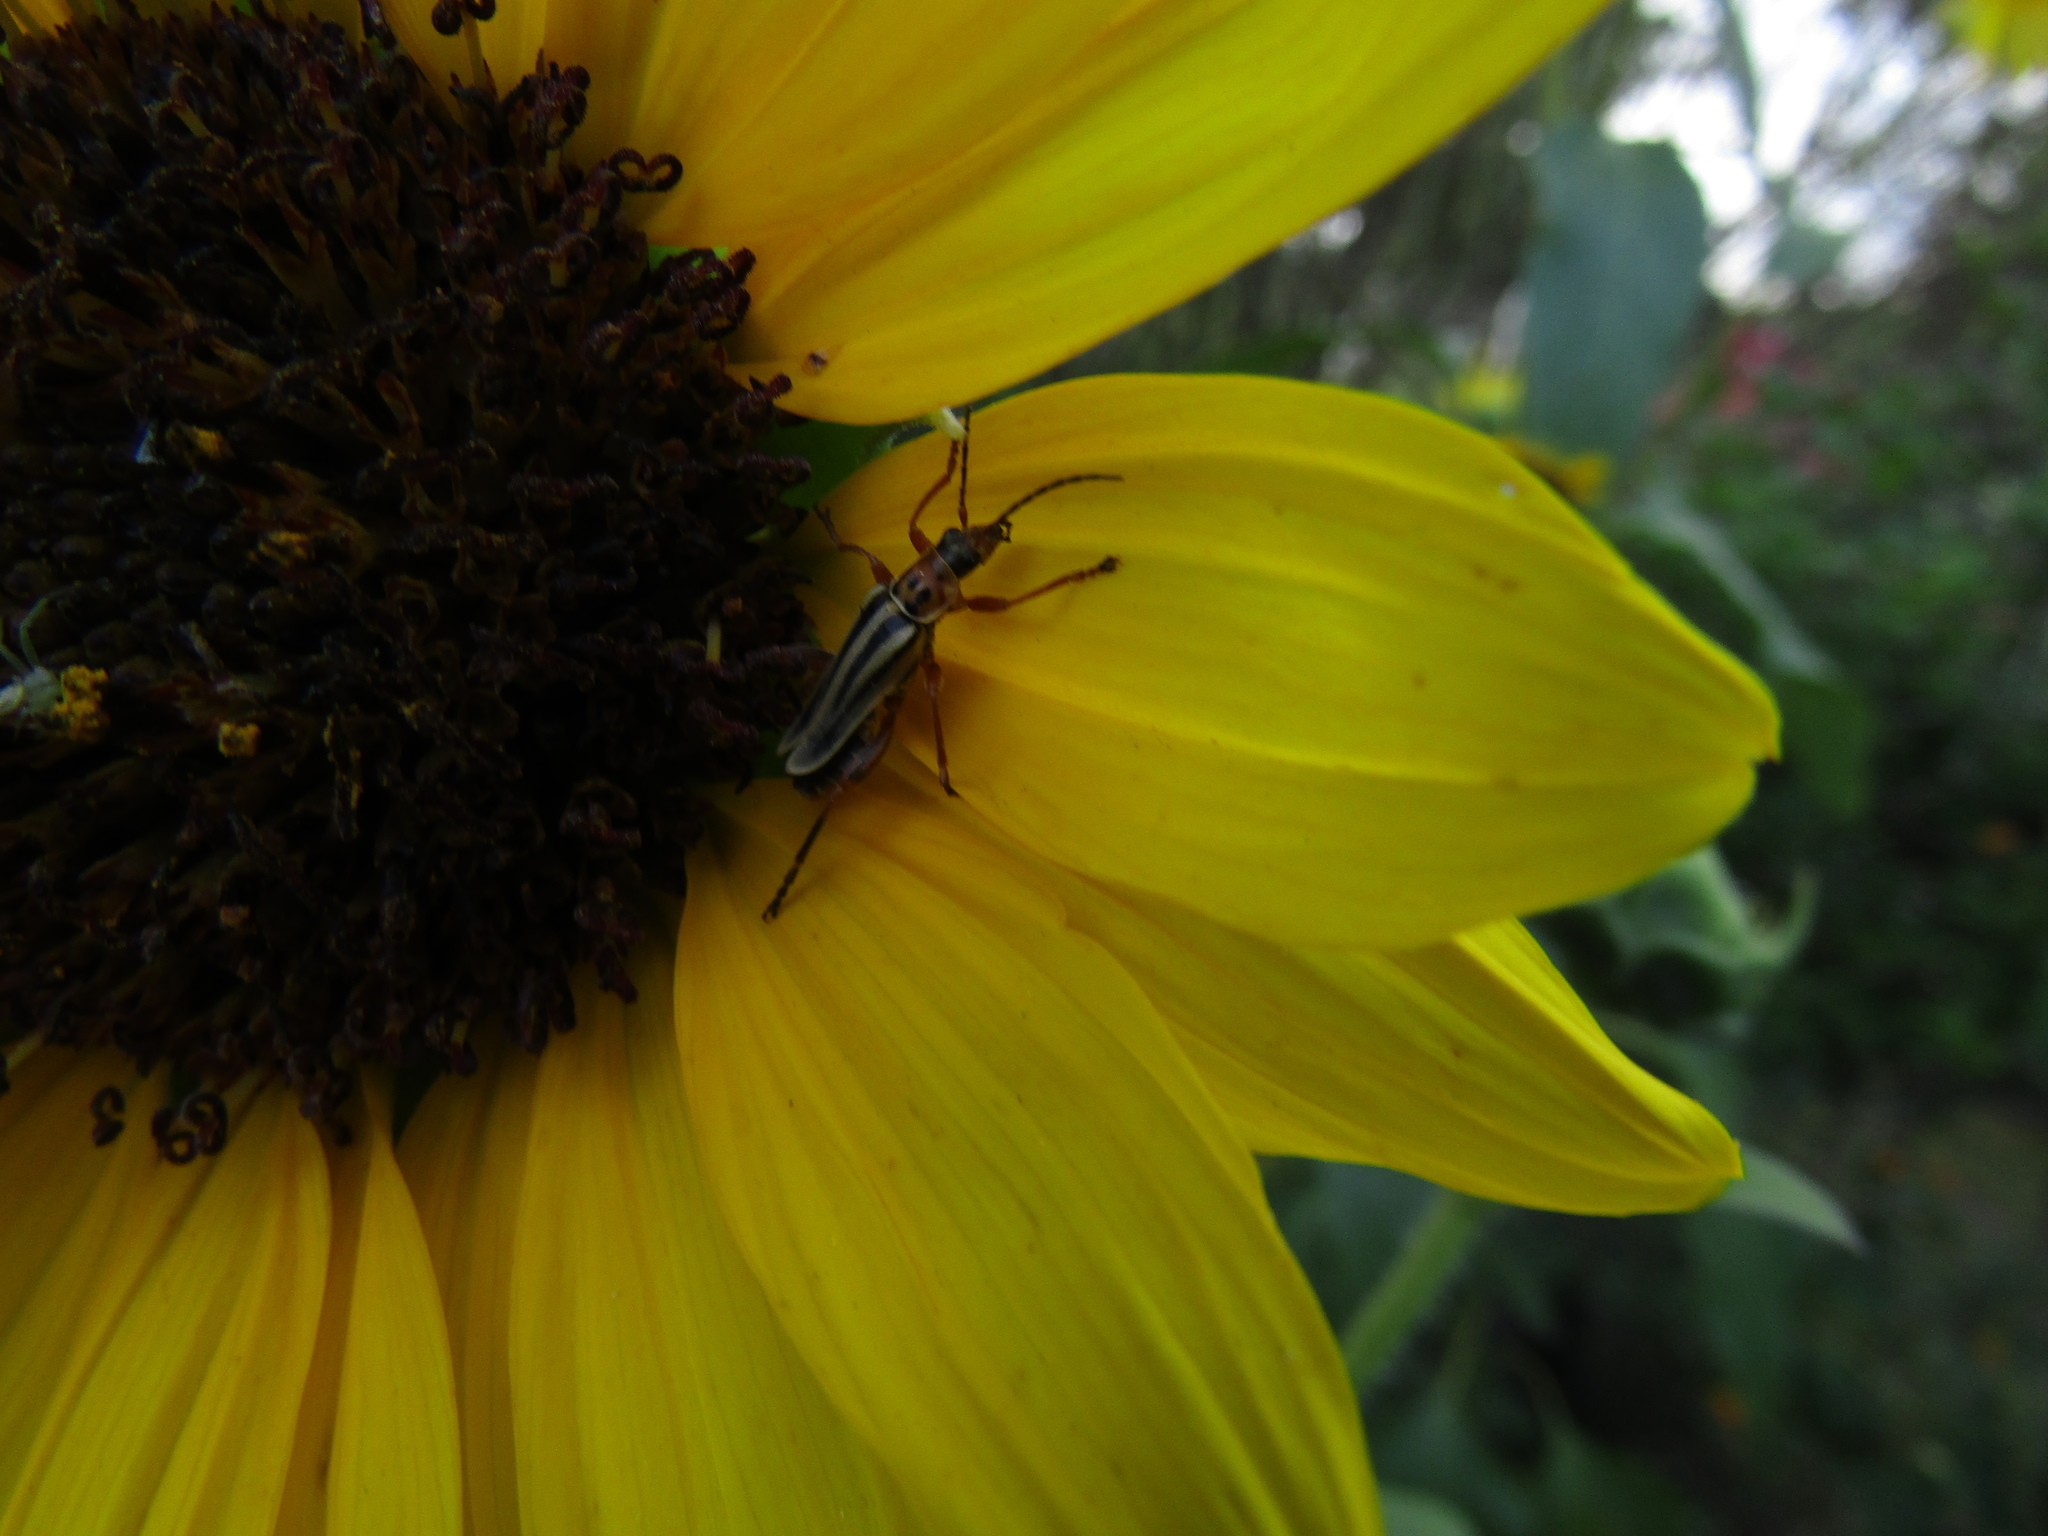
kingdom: Animalia
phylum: Arthropoda
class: Insecta
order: Coleoptera
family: Cantharidae
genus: Chauliognathus
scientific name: Chauliognathus
